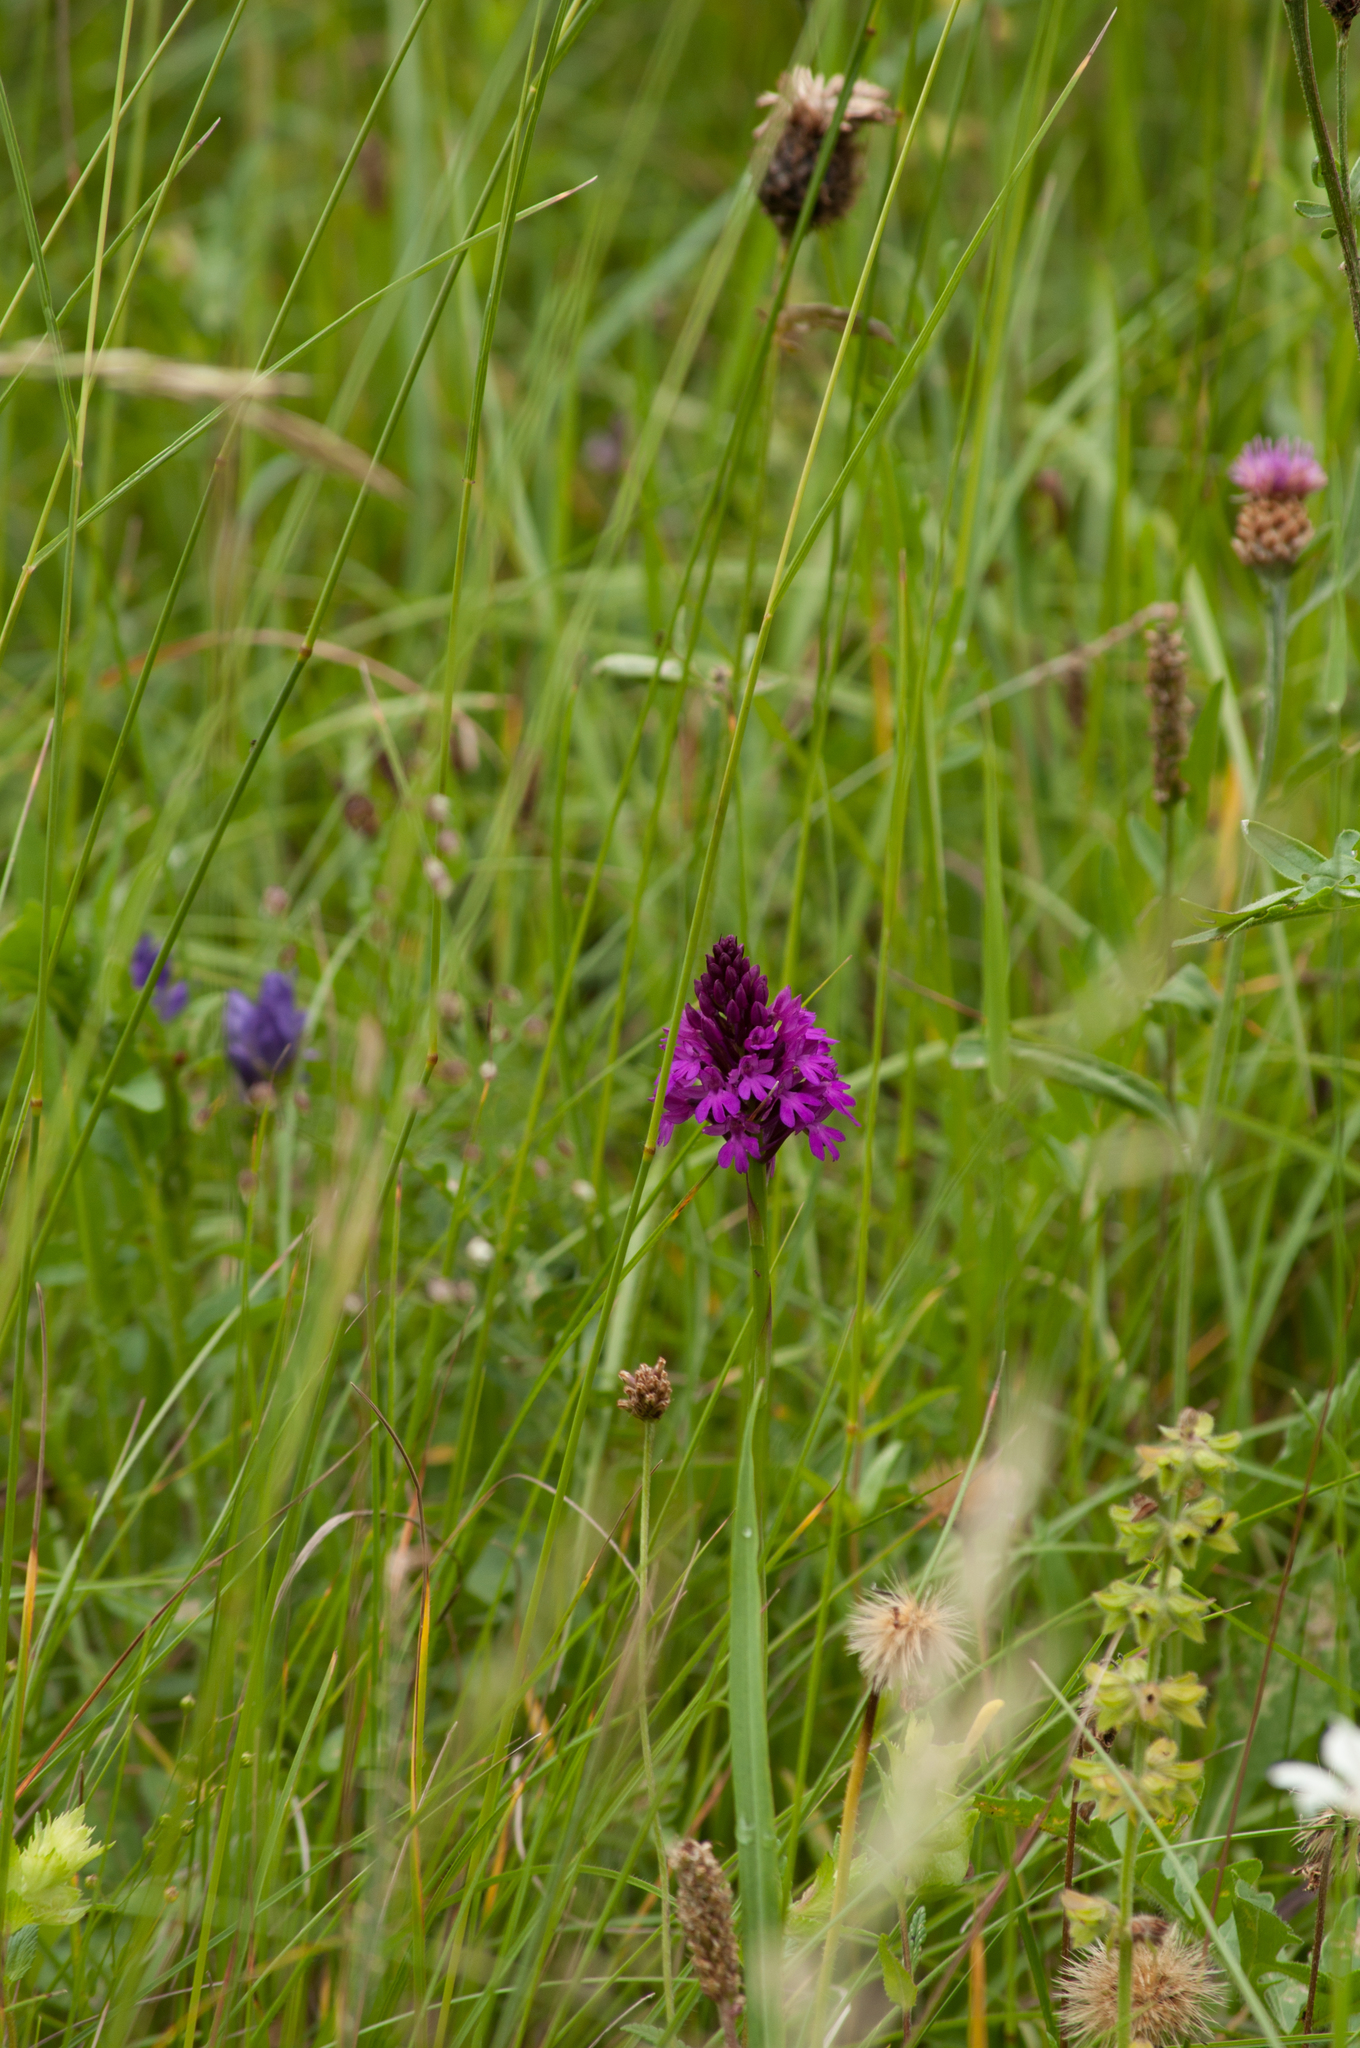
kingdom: Plantae
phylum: Tracheophyta
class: Liliopsida
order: Asparagales
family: Orchidaceae
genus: Anacamptis
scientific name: Anacamptis pyramidalis
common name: Pyramidal orchid
